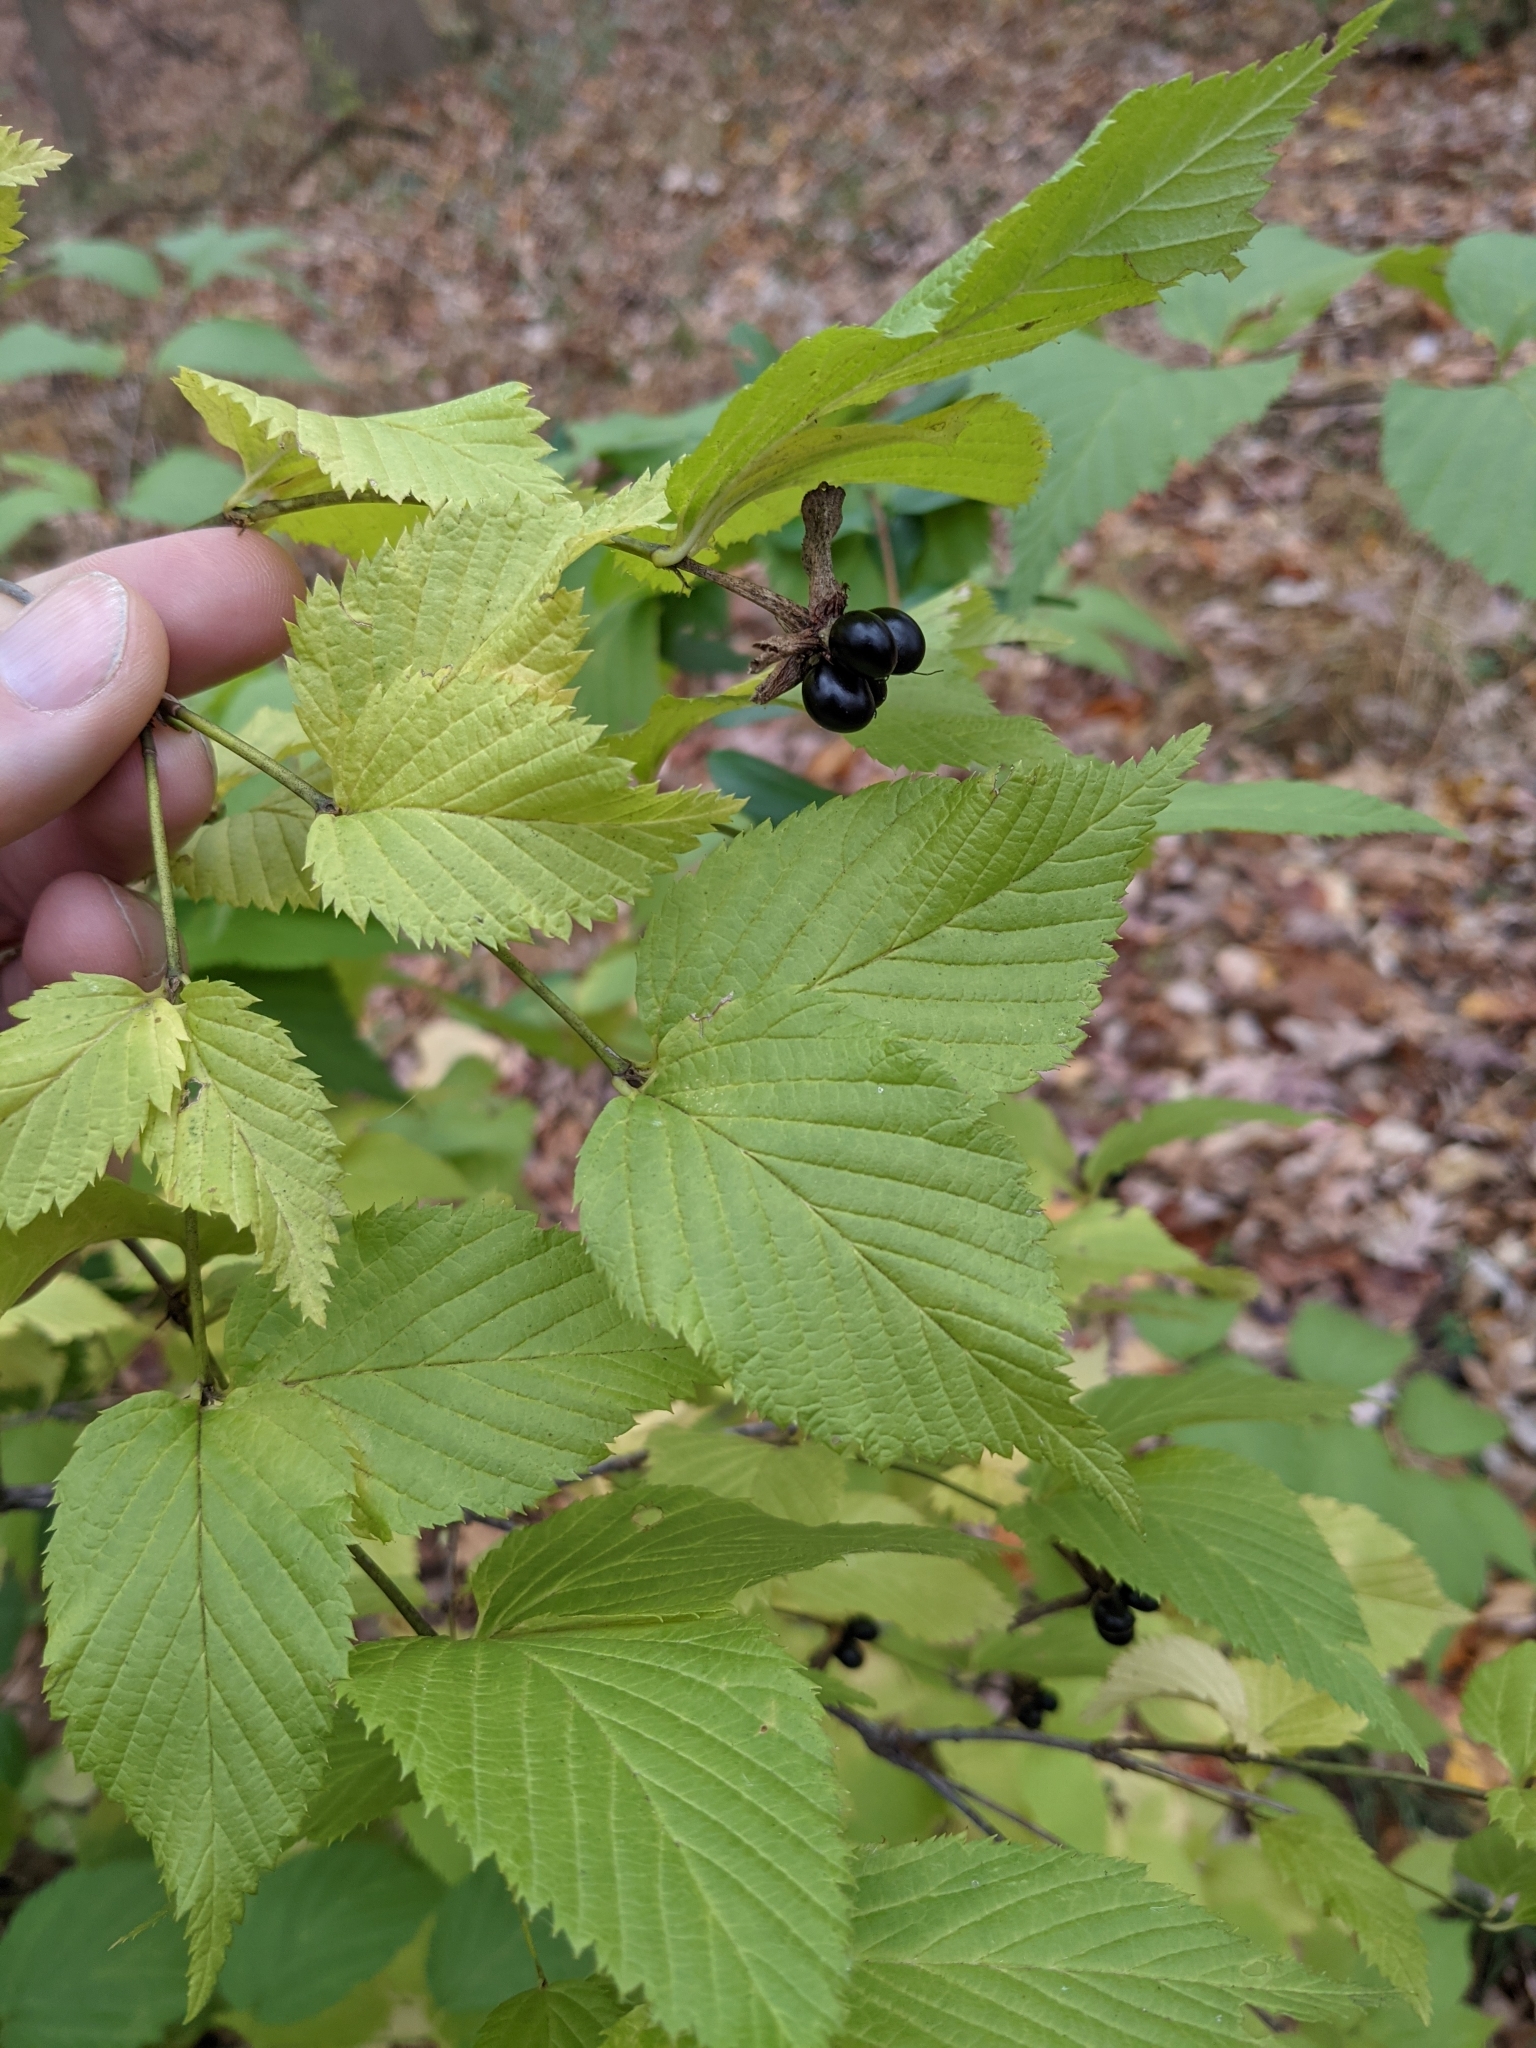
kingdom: Plantae
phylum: Tracheophyta
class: Magnoliopsida
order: Rosales
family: Rosaceae
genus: Rhodotypos
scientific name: Rhodotypos scandens
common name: Jetbead
